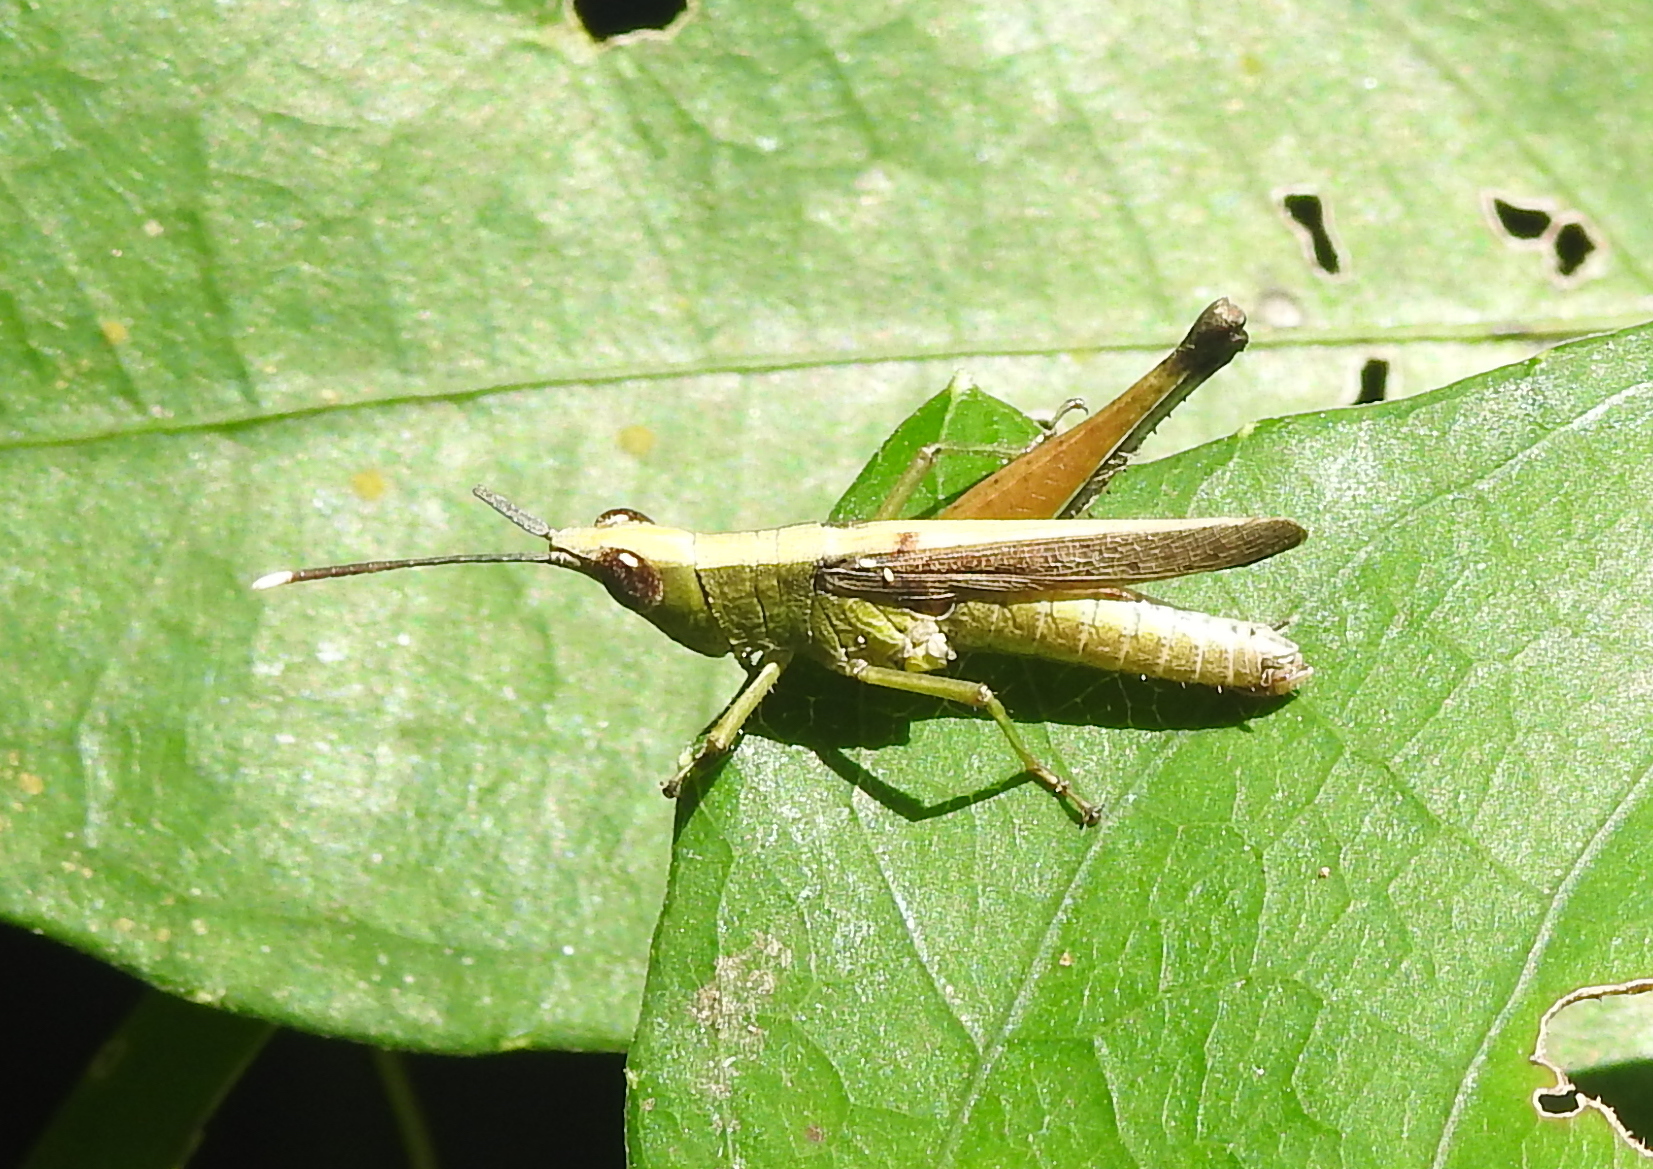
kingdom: Animalia
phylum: Arthropoda
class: Insecta
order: Orthoptera
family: Acrididae
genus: Phlaeoba
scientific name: Phlaeoba antennata
